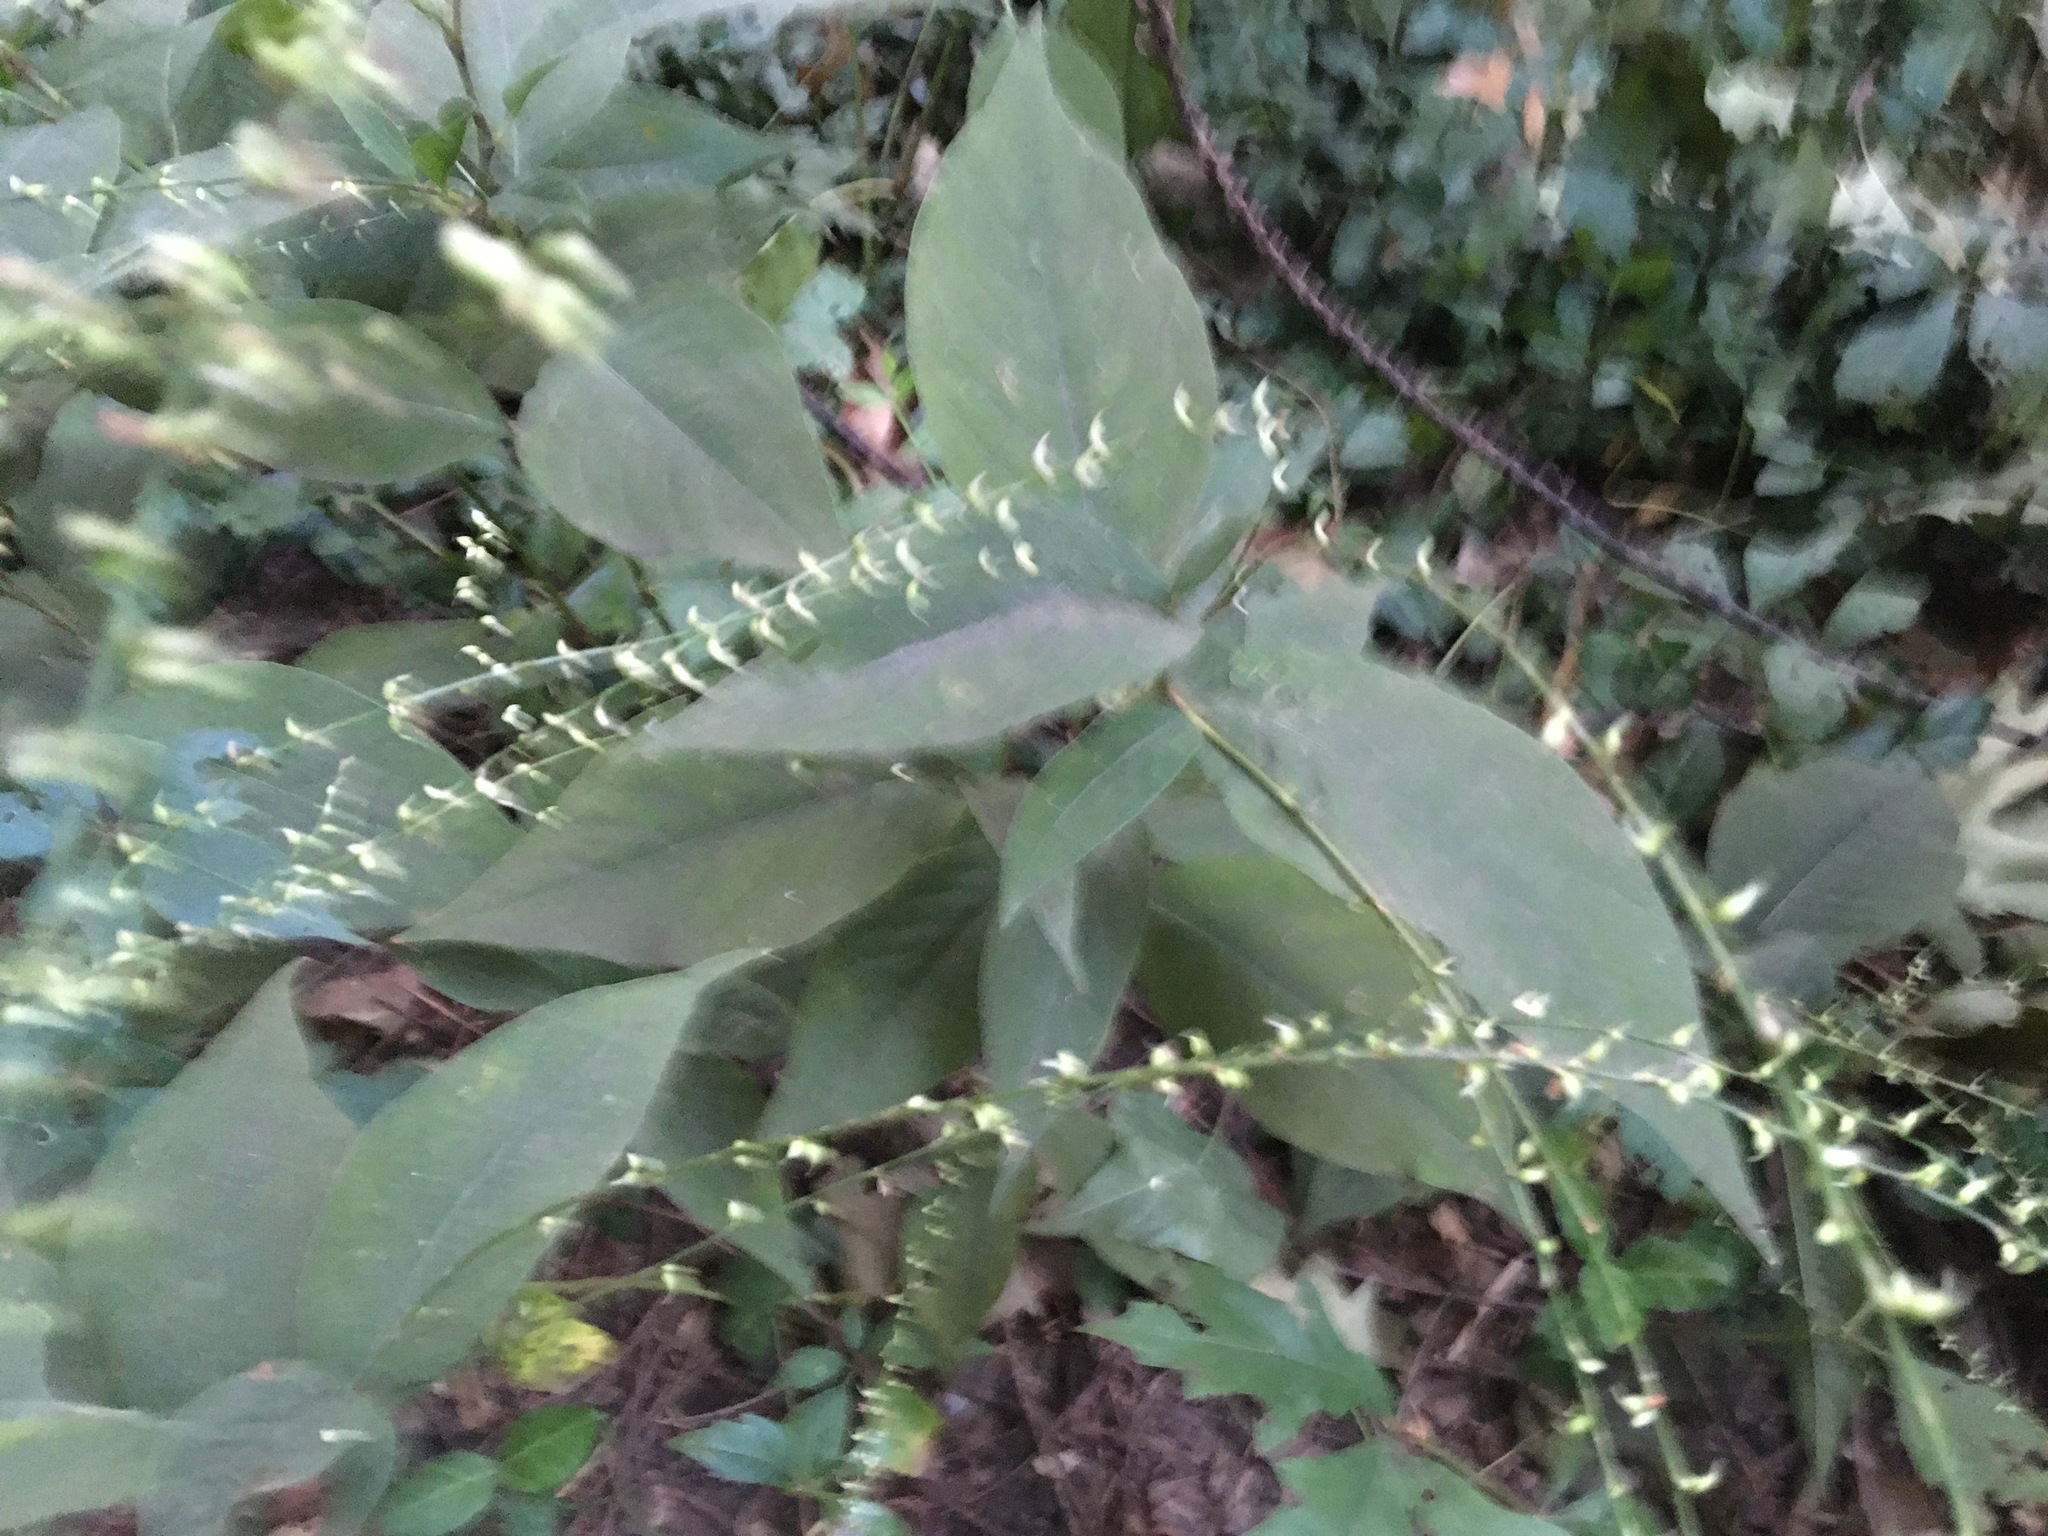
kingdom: Plantae
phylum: Tracheophyta
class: Magnoliopsida
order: Caryophyllales
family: Polygonaceae
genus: Persicaria
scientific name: Persicaria virginiana
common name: Jumpseed
